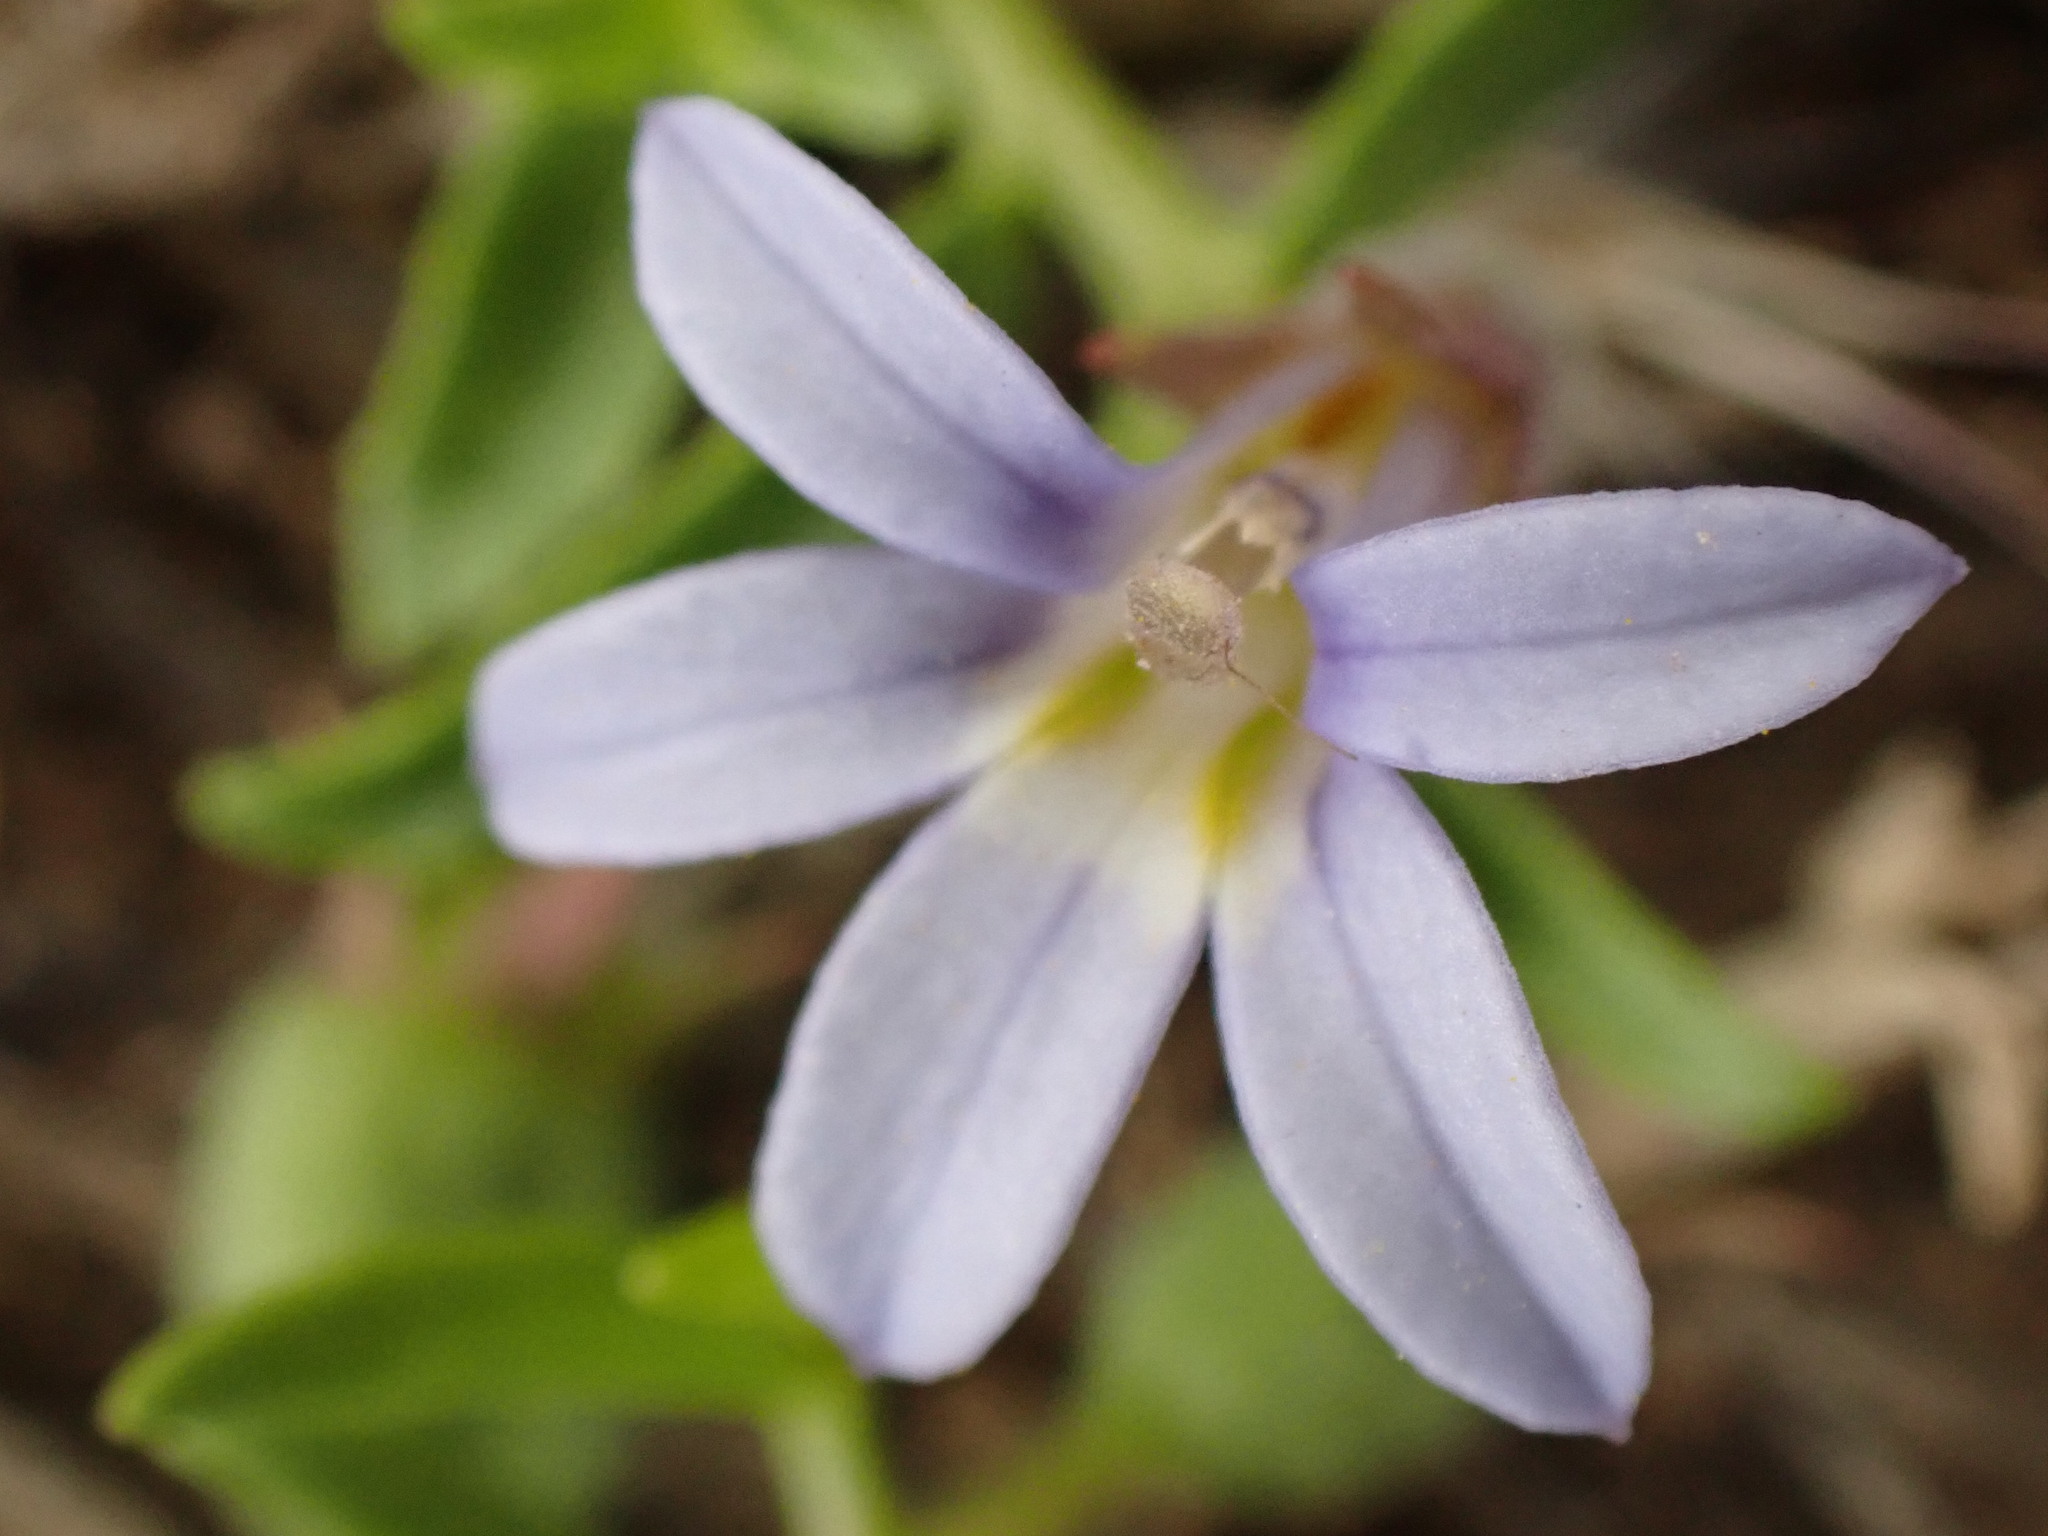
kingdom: Plantae
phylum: Tracheophyta
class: Magnoliopsida
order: Asterales
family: Campanulaceae
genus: Lobelia
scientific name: Lobelia pratioides
